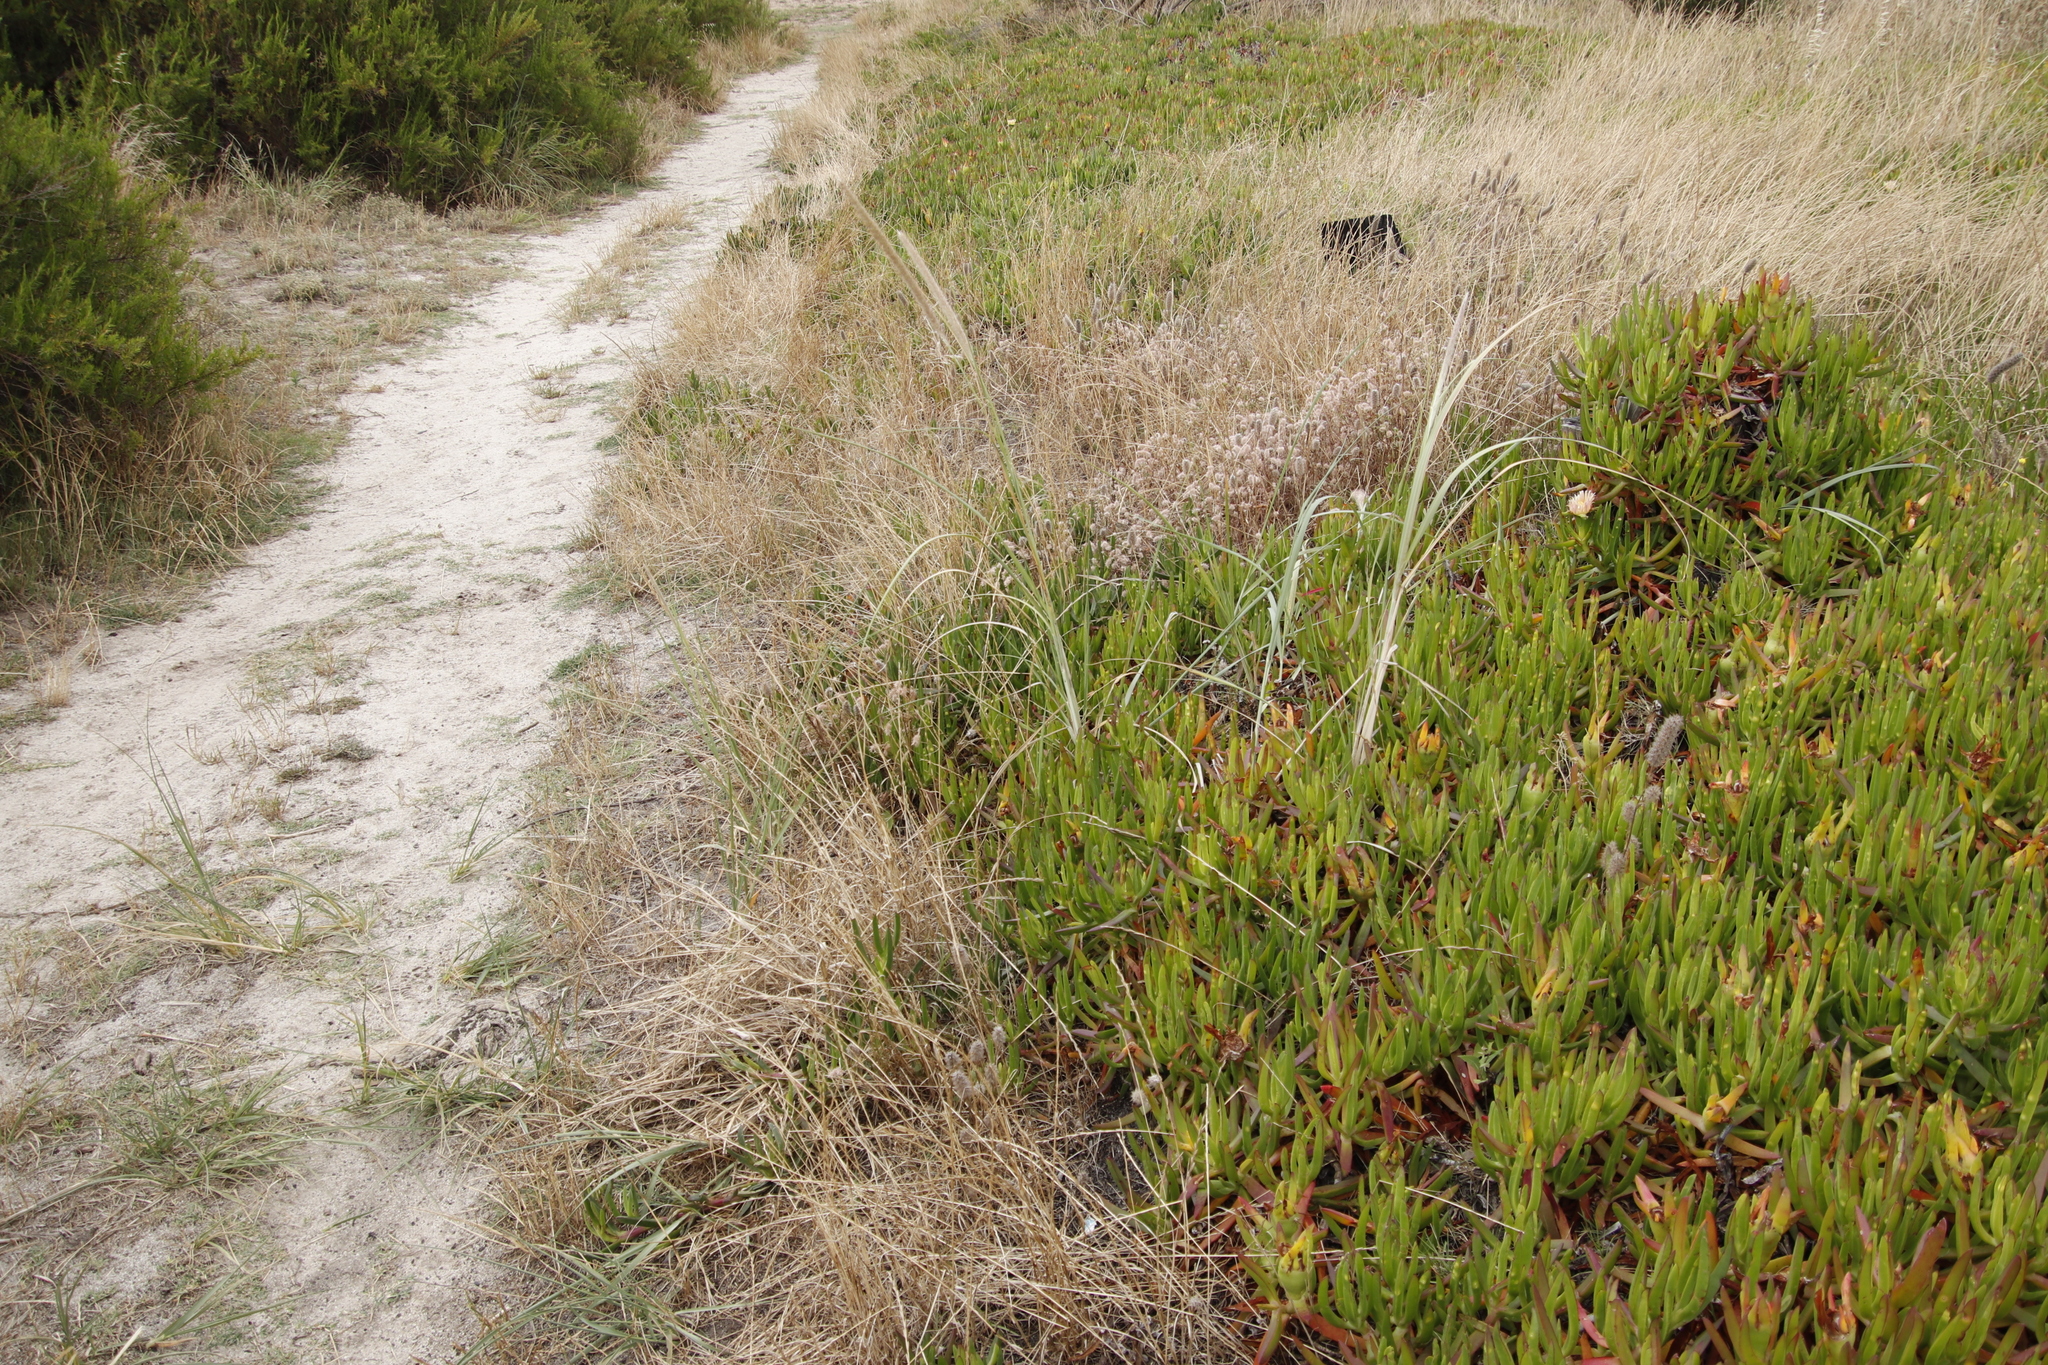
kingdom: Plantae
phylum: Tracheophyta
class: Liliopsida
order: Poales
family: Poaceae
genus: Cenchrus
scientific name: Cenchrus caudatus
